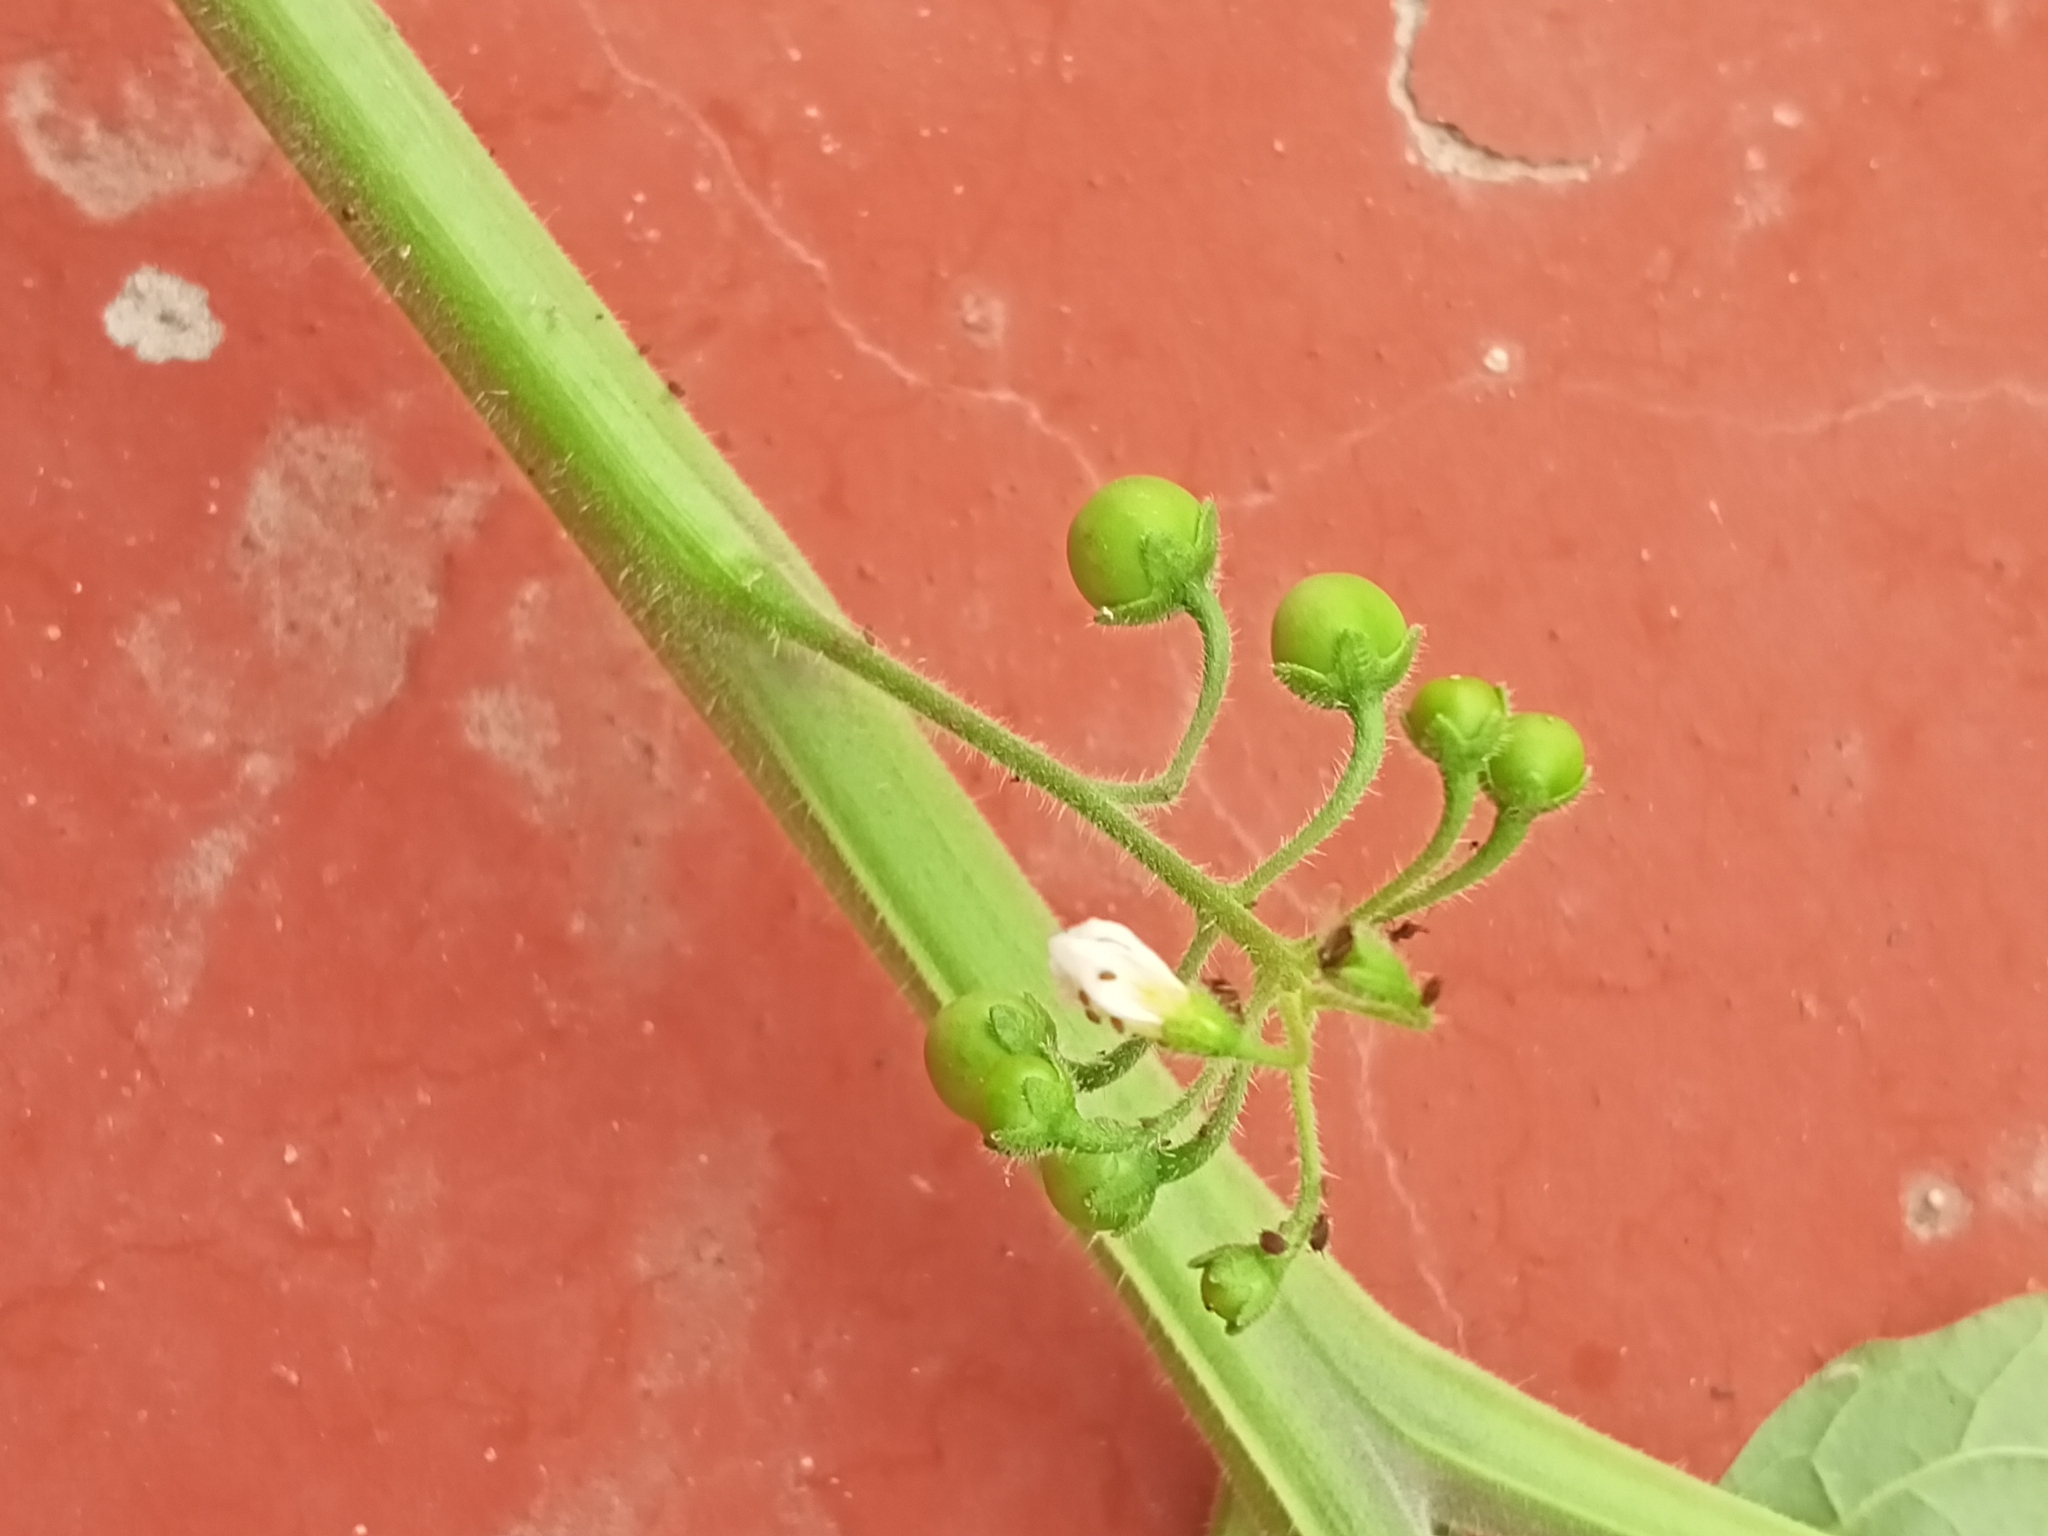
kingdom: Plantae
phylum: Tracheophyta
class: Magnoliopsida
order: Solanales
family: Solanaceae
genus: Solanum
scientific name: Solanum nigrum
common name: Black nightshade
